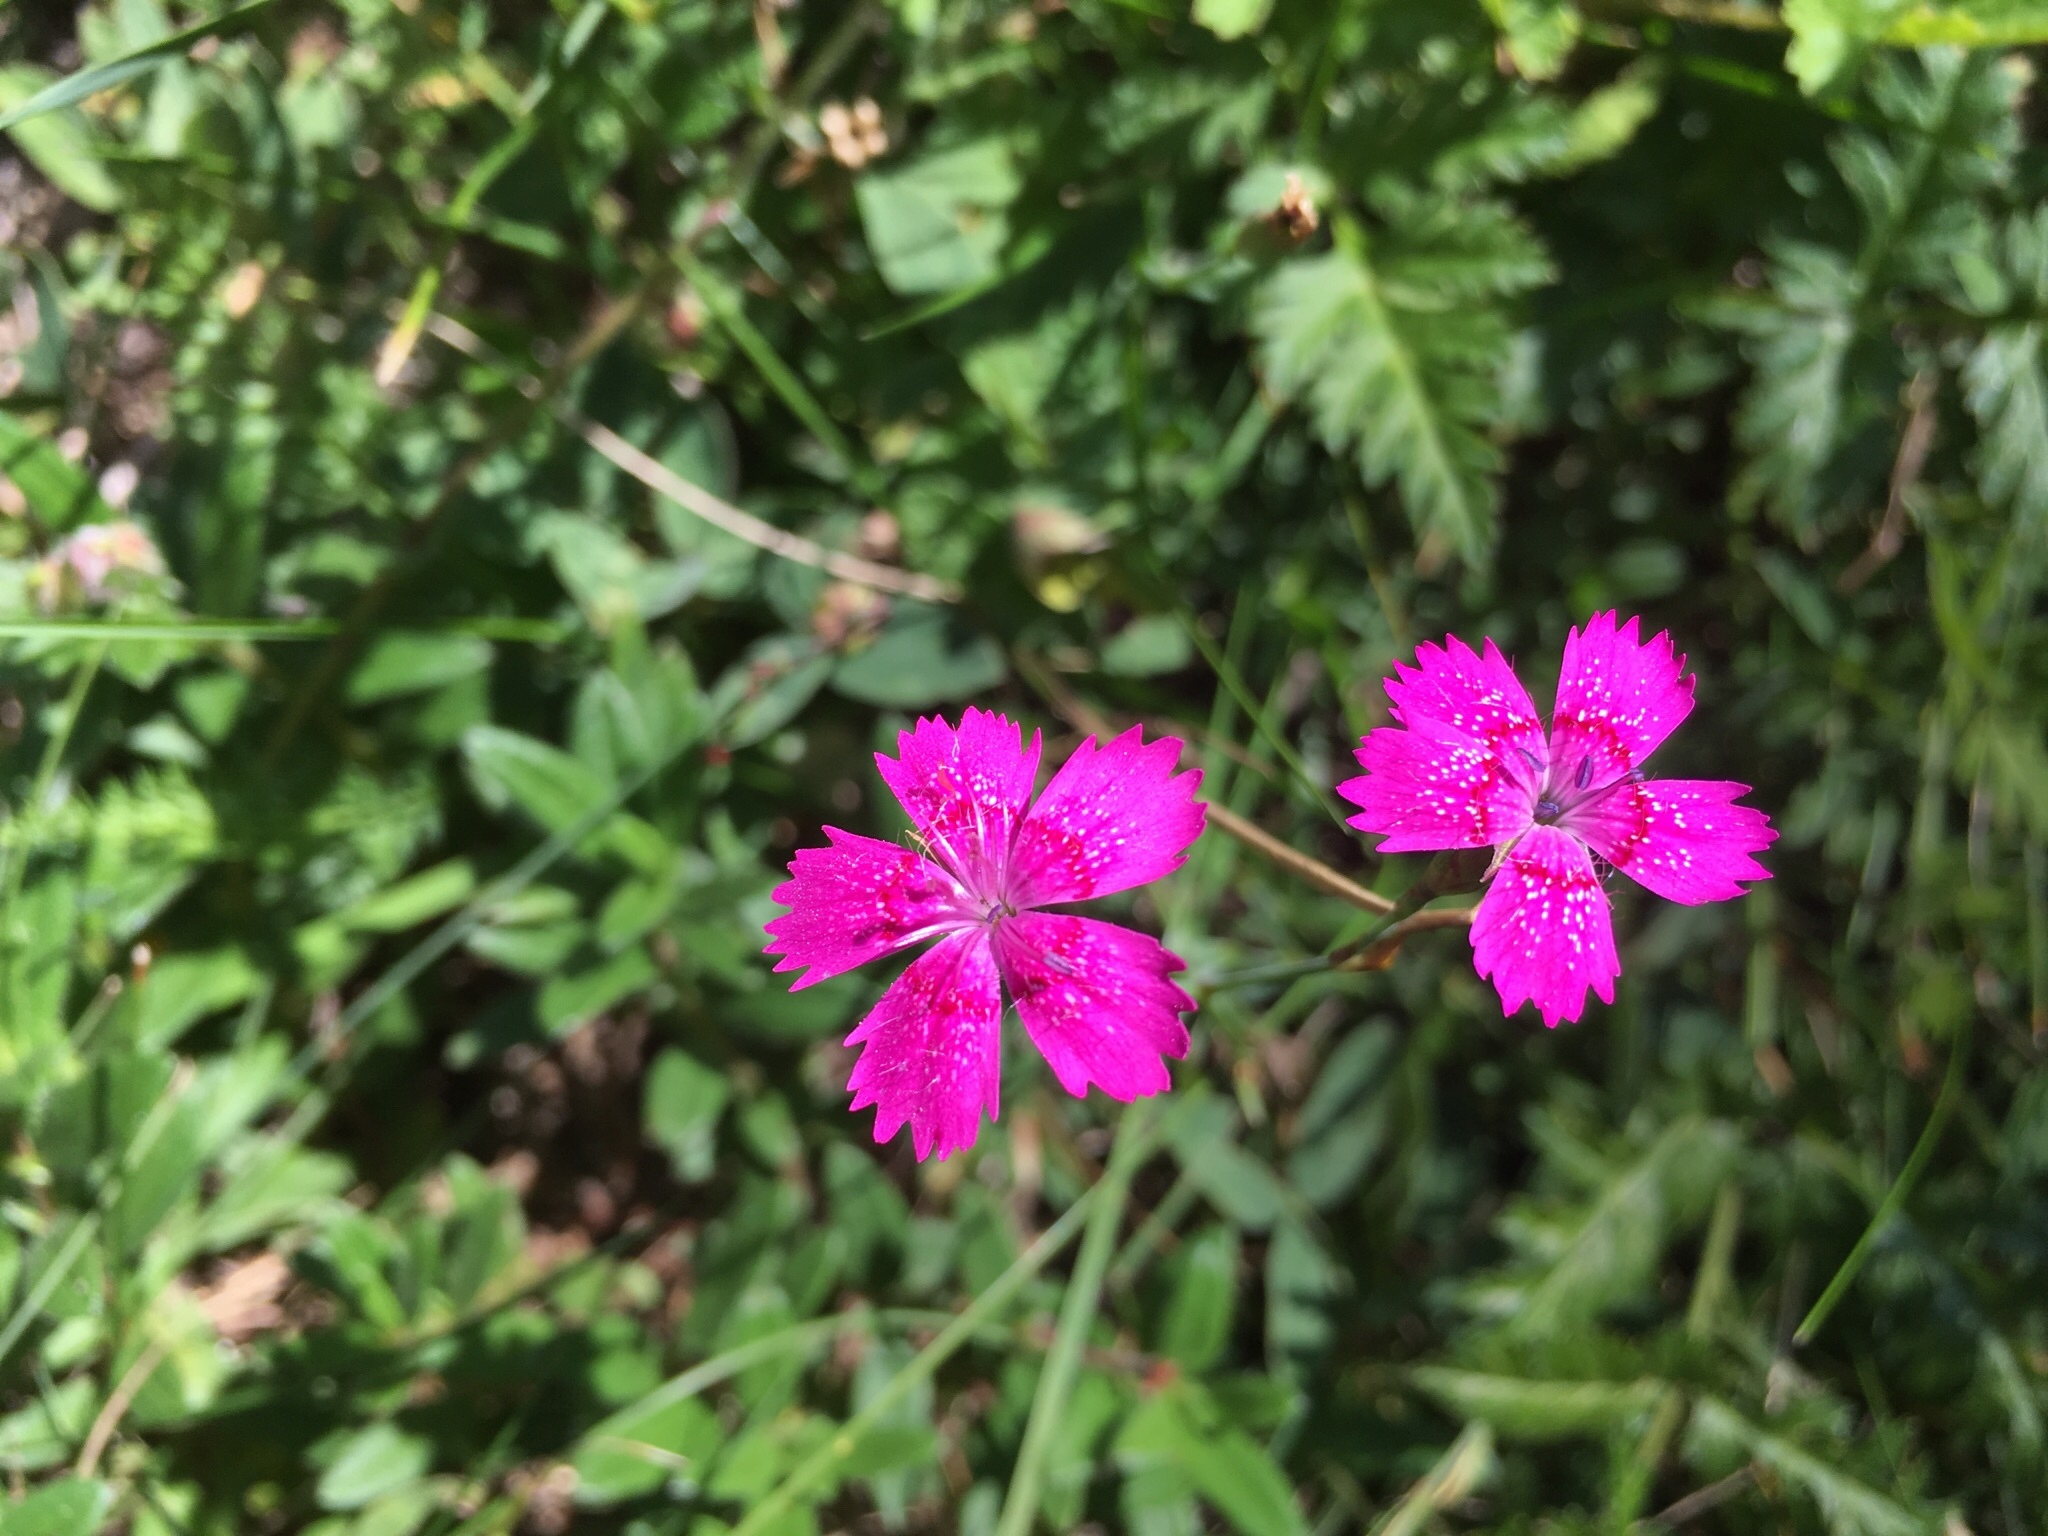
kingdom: Plantae
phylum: Tracheophyta
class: Magnoliopsida
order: Caryophyllales
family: Caryophyllaceae
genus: Dianthus
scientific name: Dianthus deltoides
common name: Maiden pink
